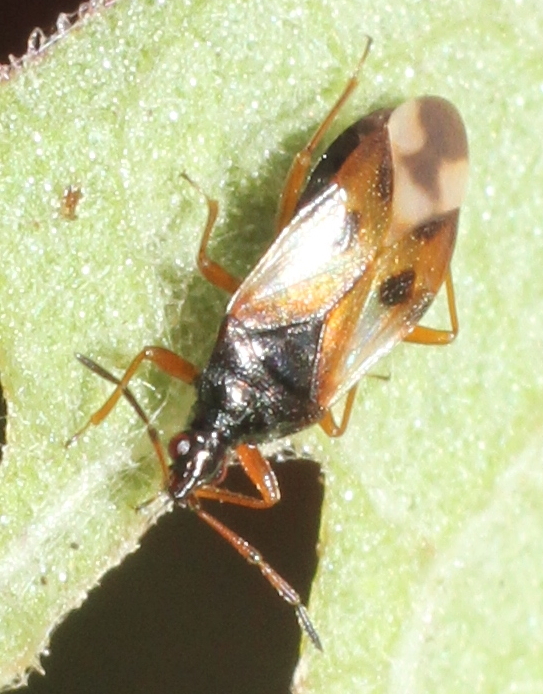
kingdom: Animalia
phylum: Arthropoda
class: Insecta
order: Hemiptera
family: Anthocoridae
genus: Anthocoris
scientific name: Anthocoris nemorum
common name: Minute pirate bug
